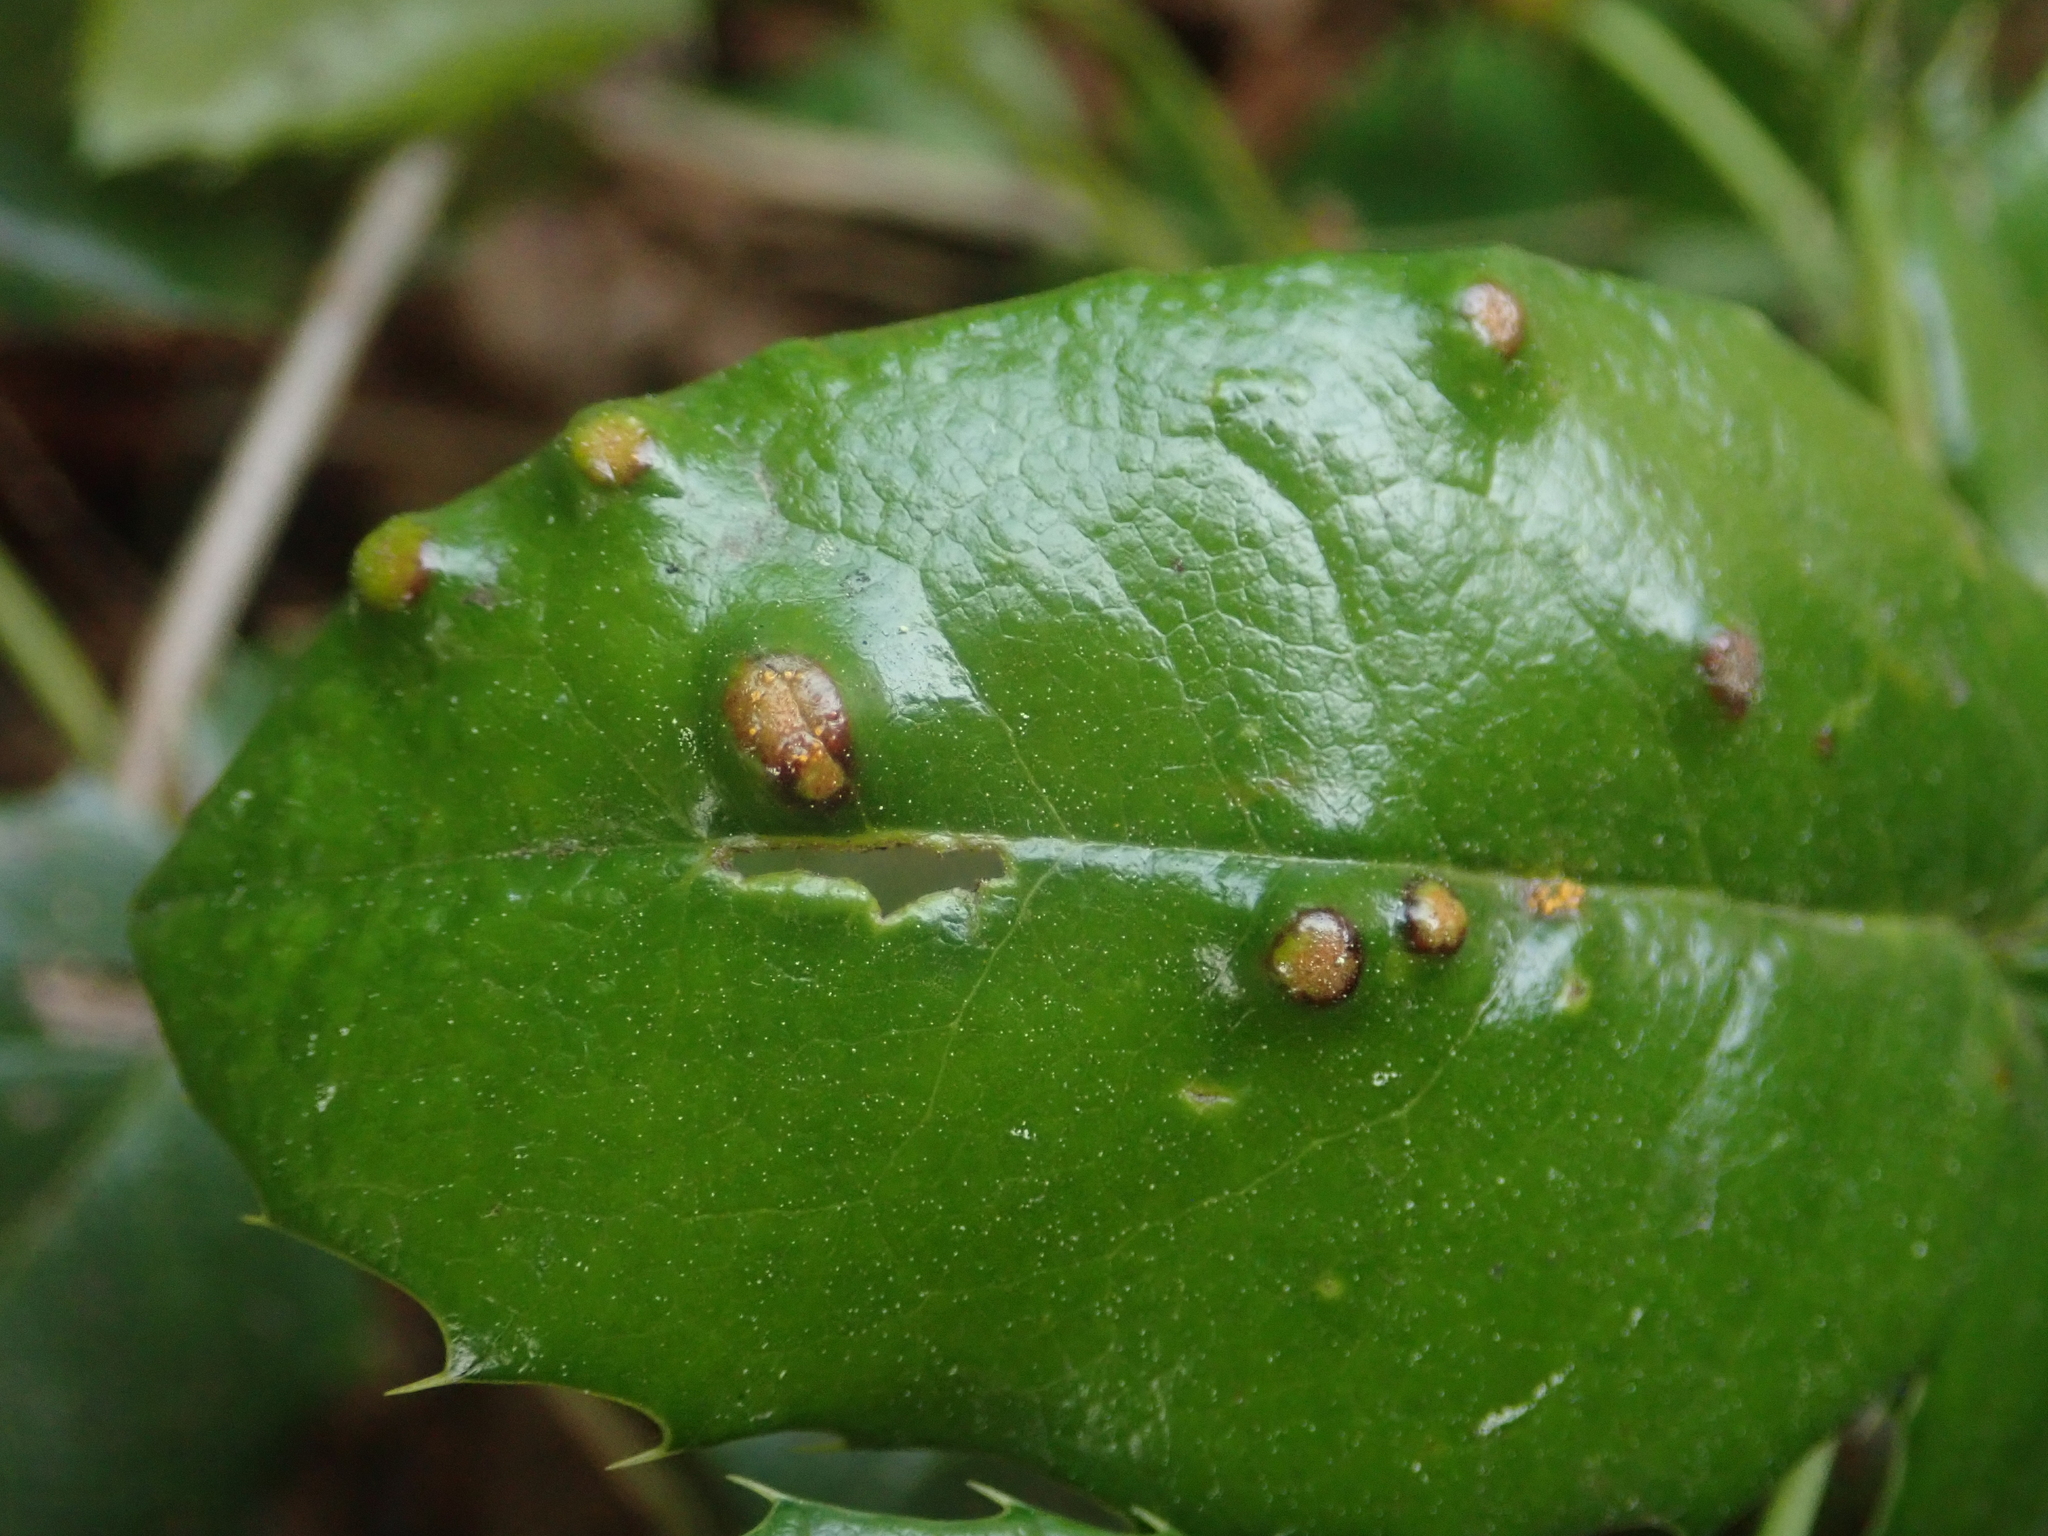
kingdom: Fungi
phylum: Basidiomycota
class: Pucciniomycetes
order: Pucciniales
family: Pucciniaceae
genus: Cumminsiella
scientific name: Cumminsiella mirabilissima
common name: Mahonia rust
